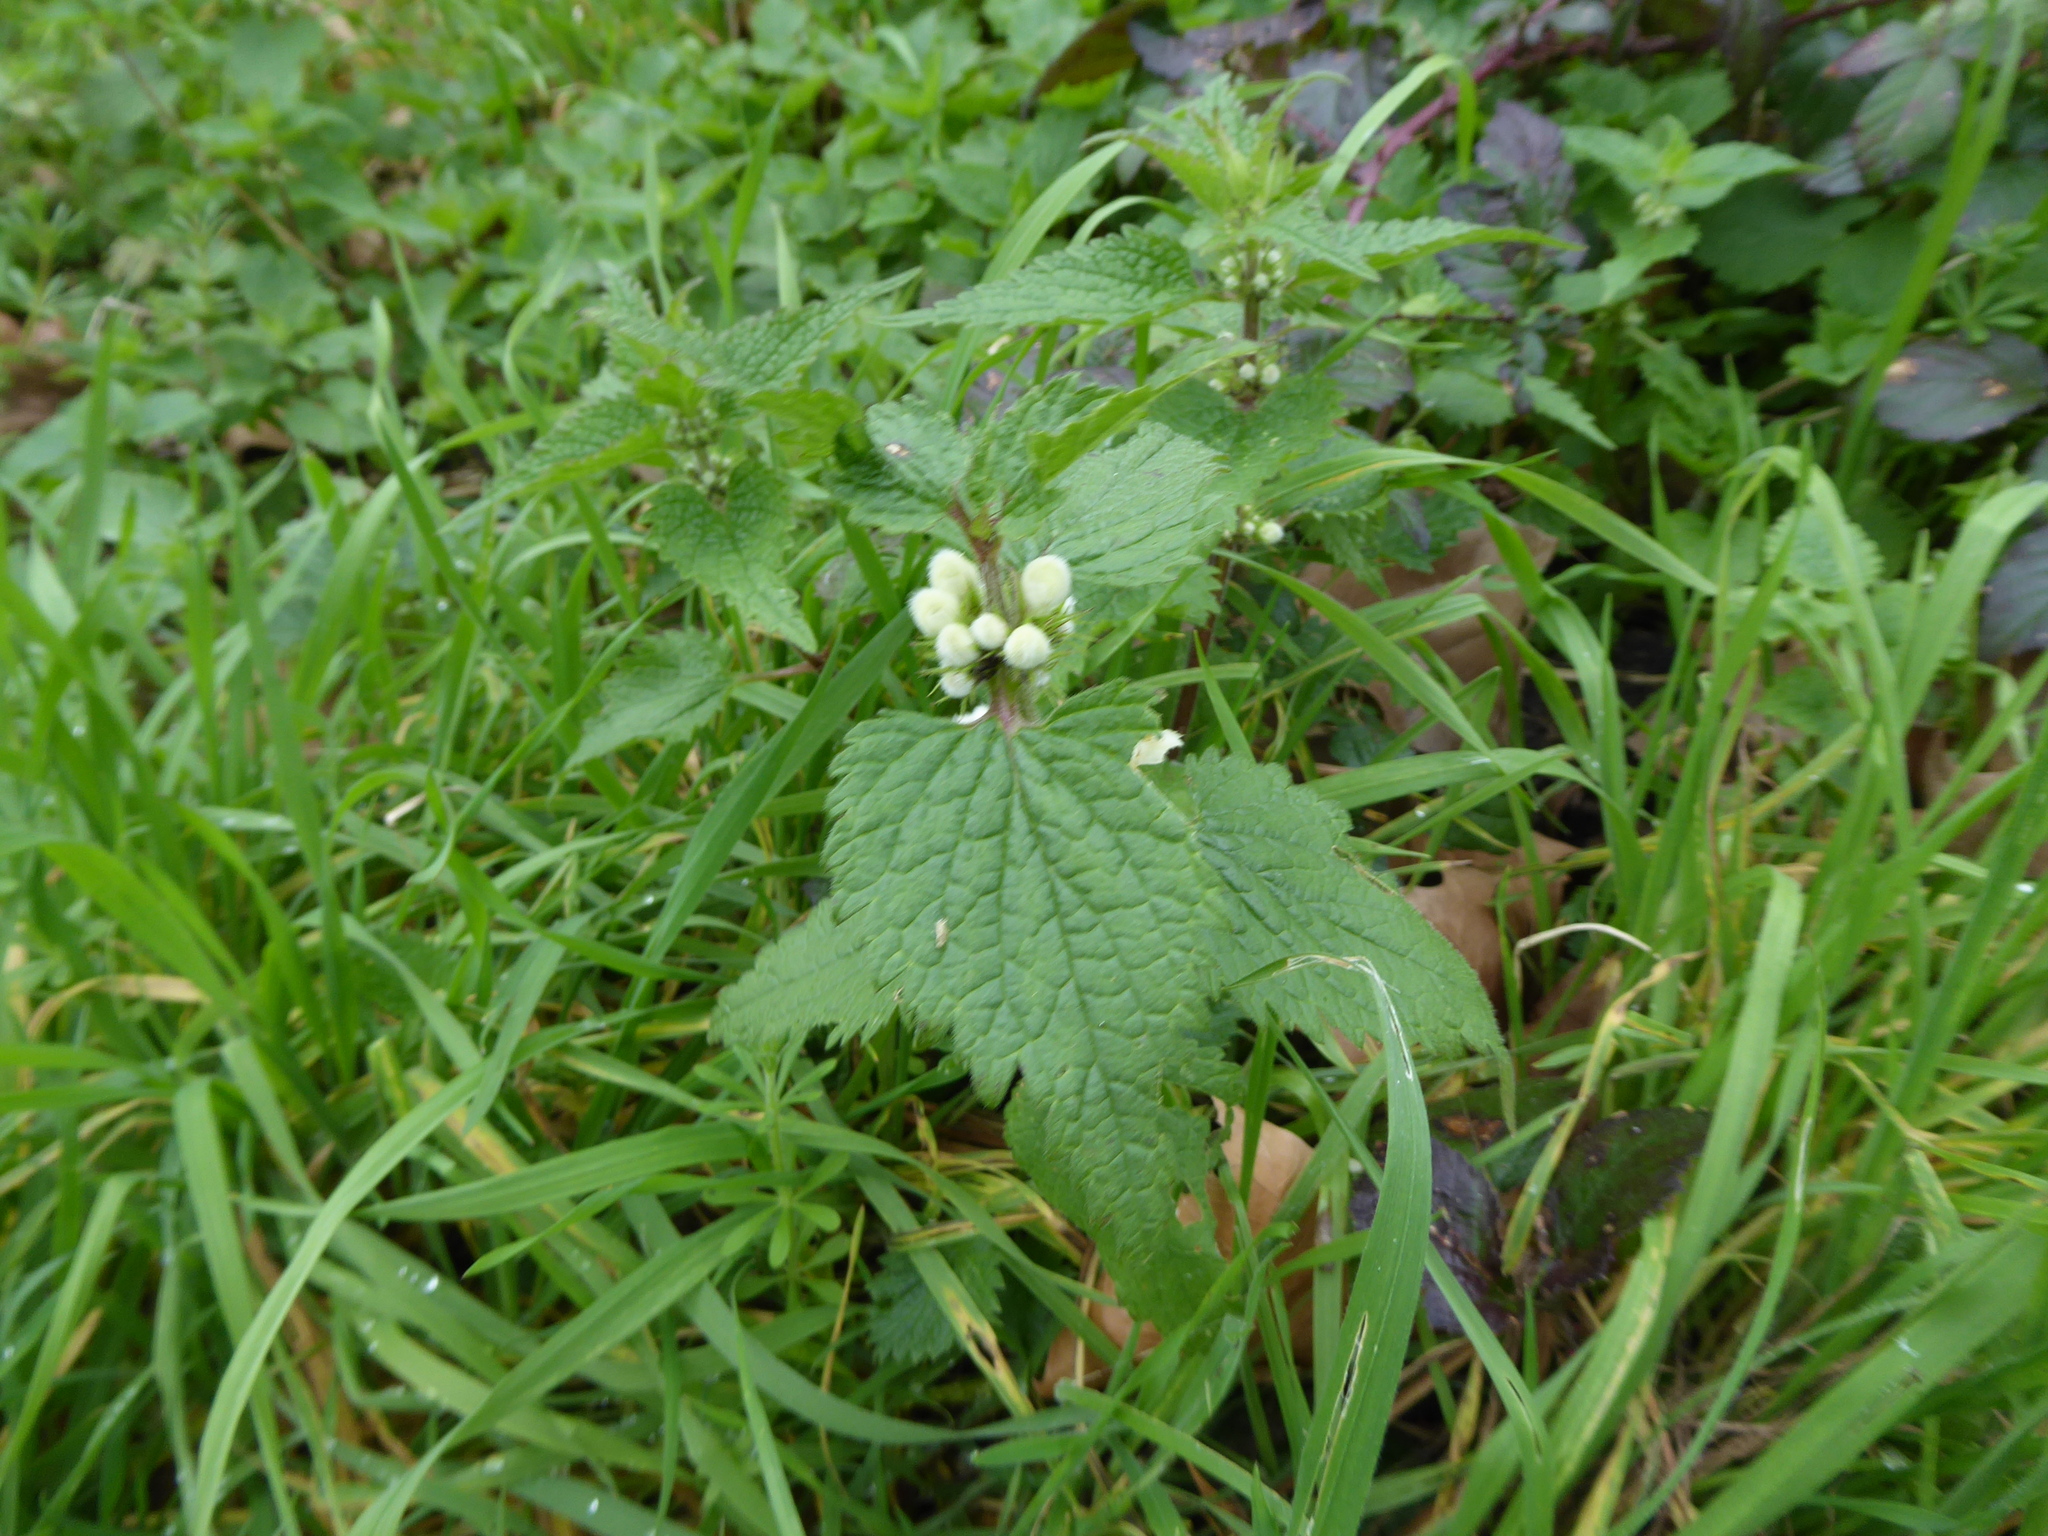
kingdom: Plantae
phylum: Tracheophyta
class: Magnoliopsida
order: Lamiales
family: Lamiaceae
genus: Lamium
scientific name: Lamium album
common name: White dead-nettle
